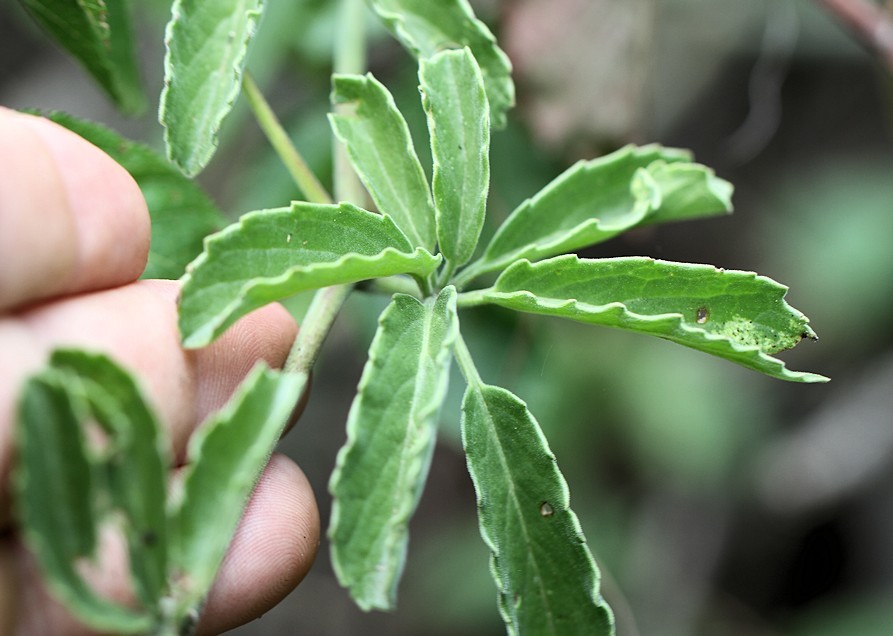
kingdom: Plantae
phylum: Tracheophyta
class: Magnoliopsida
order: Vitales
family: Vitaceae
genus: Cyphostemma
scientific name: Cyphostemma puberulum
